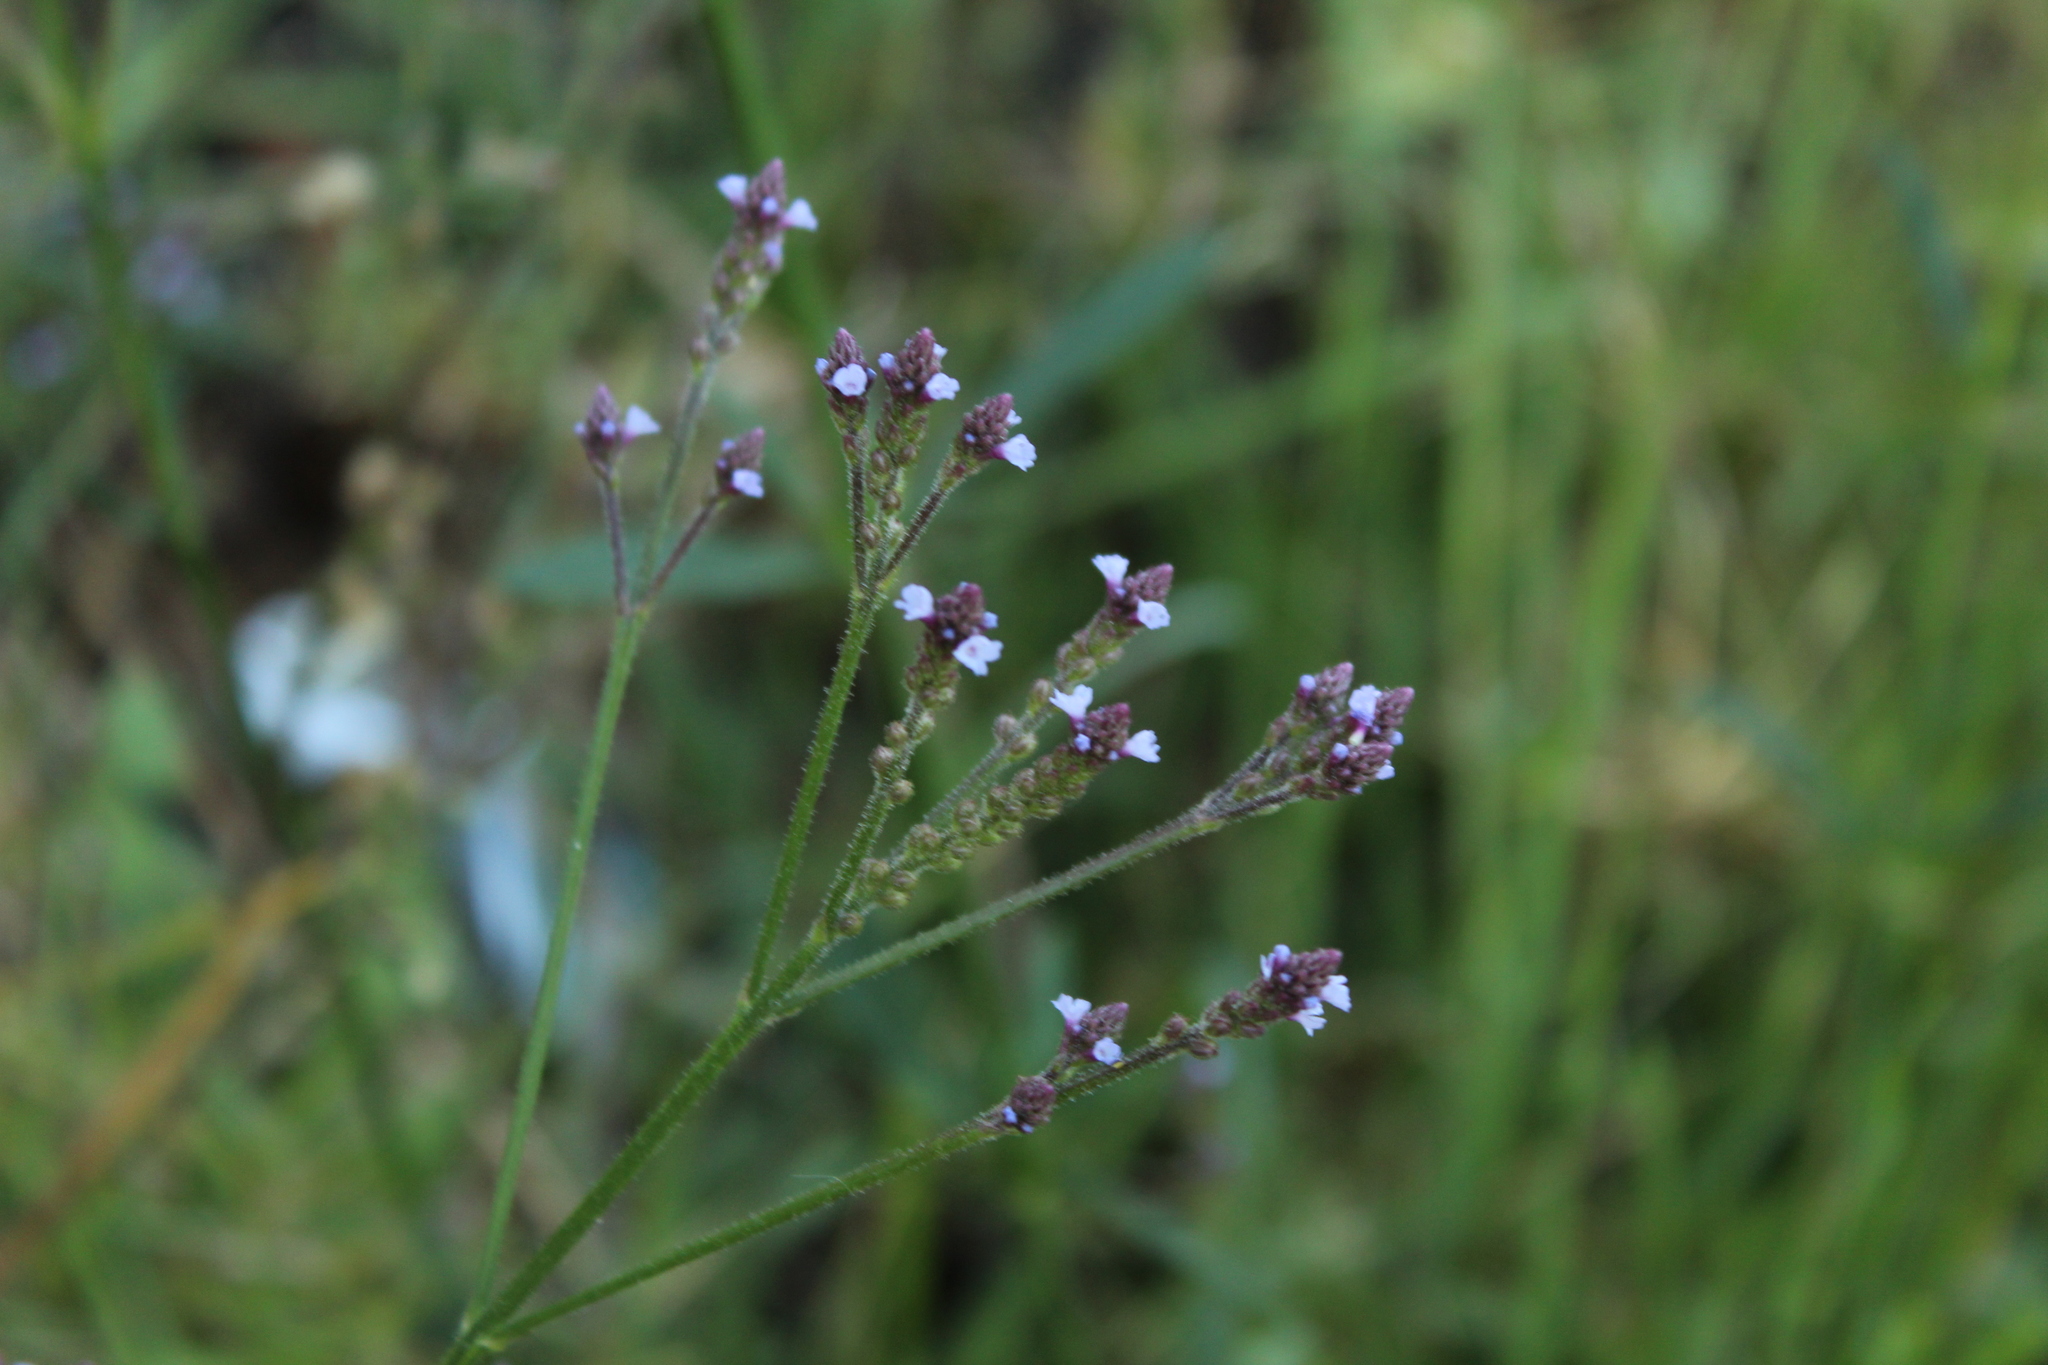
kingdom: Plantae
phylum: Tracheophyta
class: Magnoliopsida
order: Lamiales
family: Verbenaceae
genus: Verbena
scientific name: Verbena litoralis
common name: Seashore vervain
